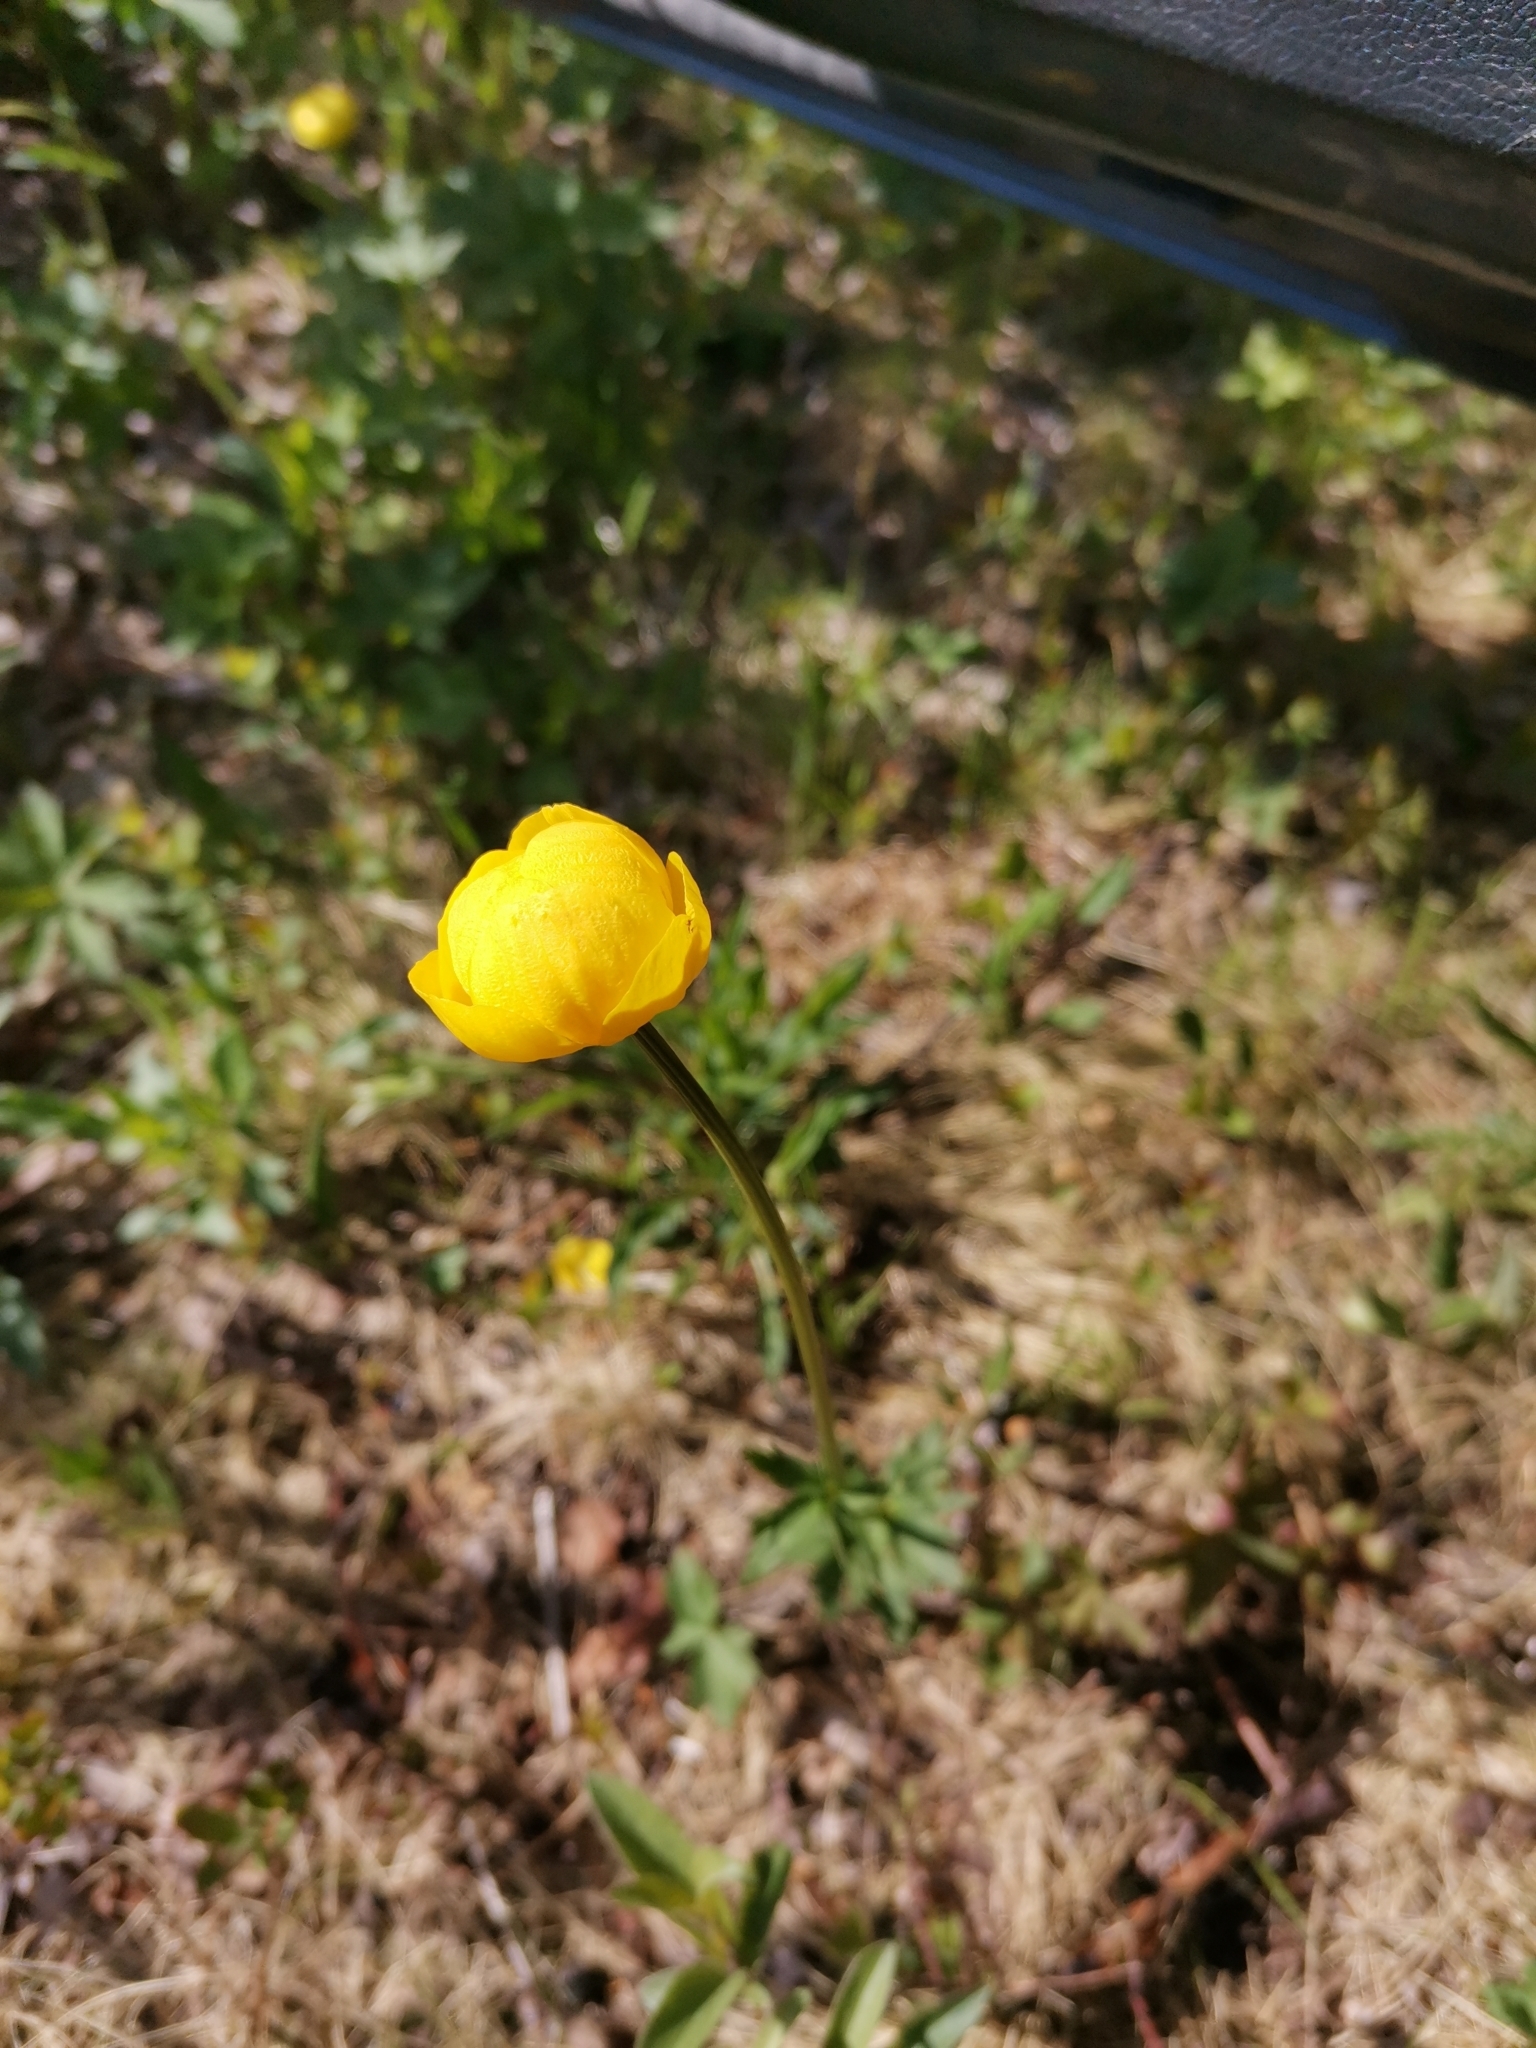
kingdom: Plantae
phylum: Tracheophyta
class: Magnoliopsida
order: Ranunculales
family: Ranunculaceae
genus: Trollius
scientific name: Trollius europaeus
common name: European globeflower
